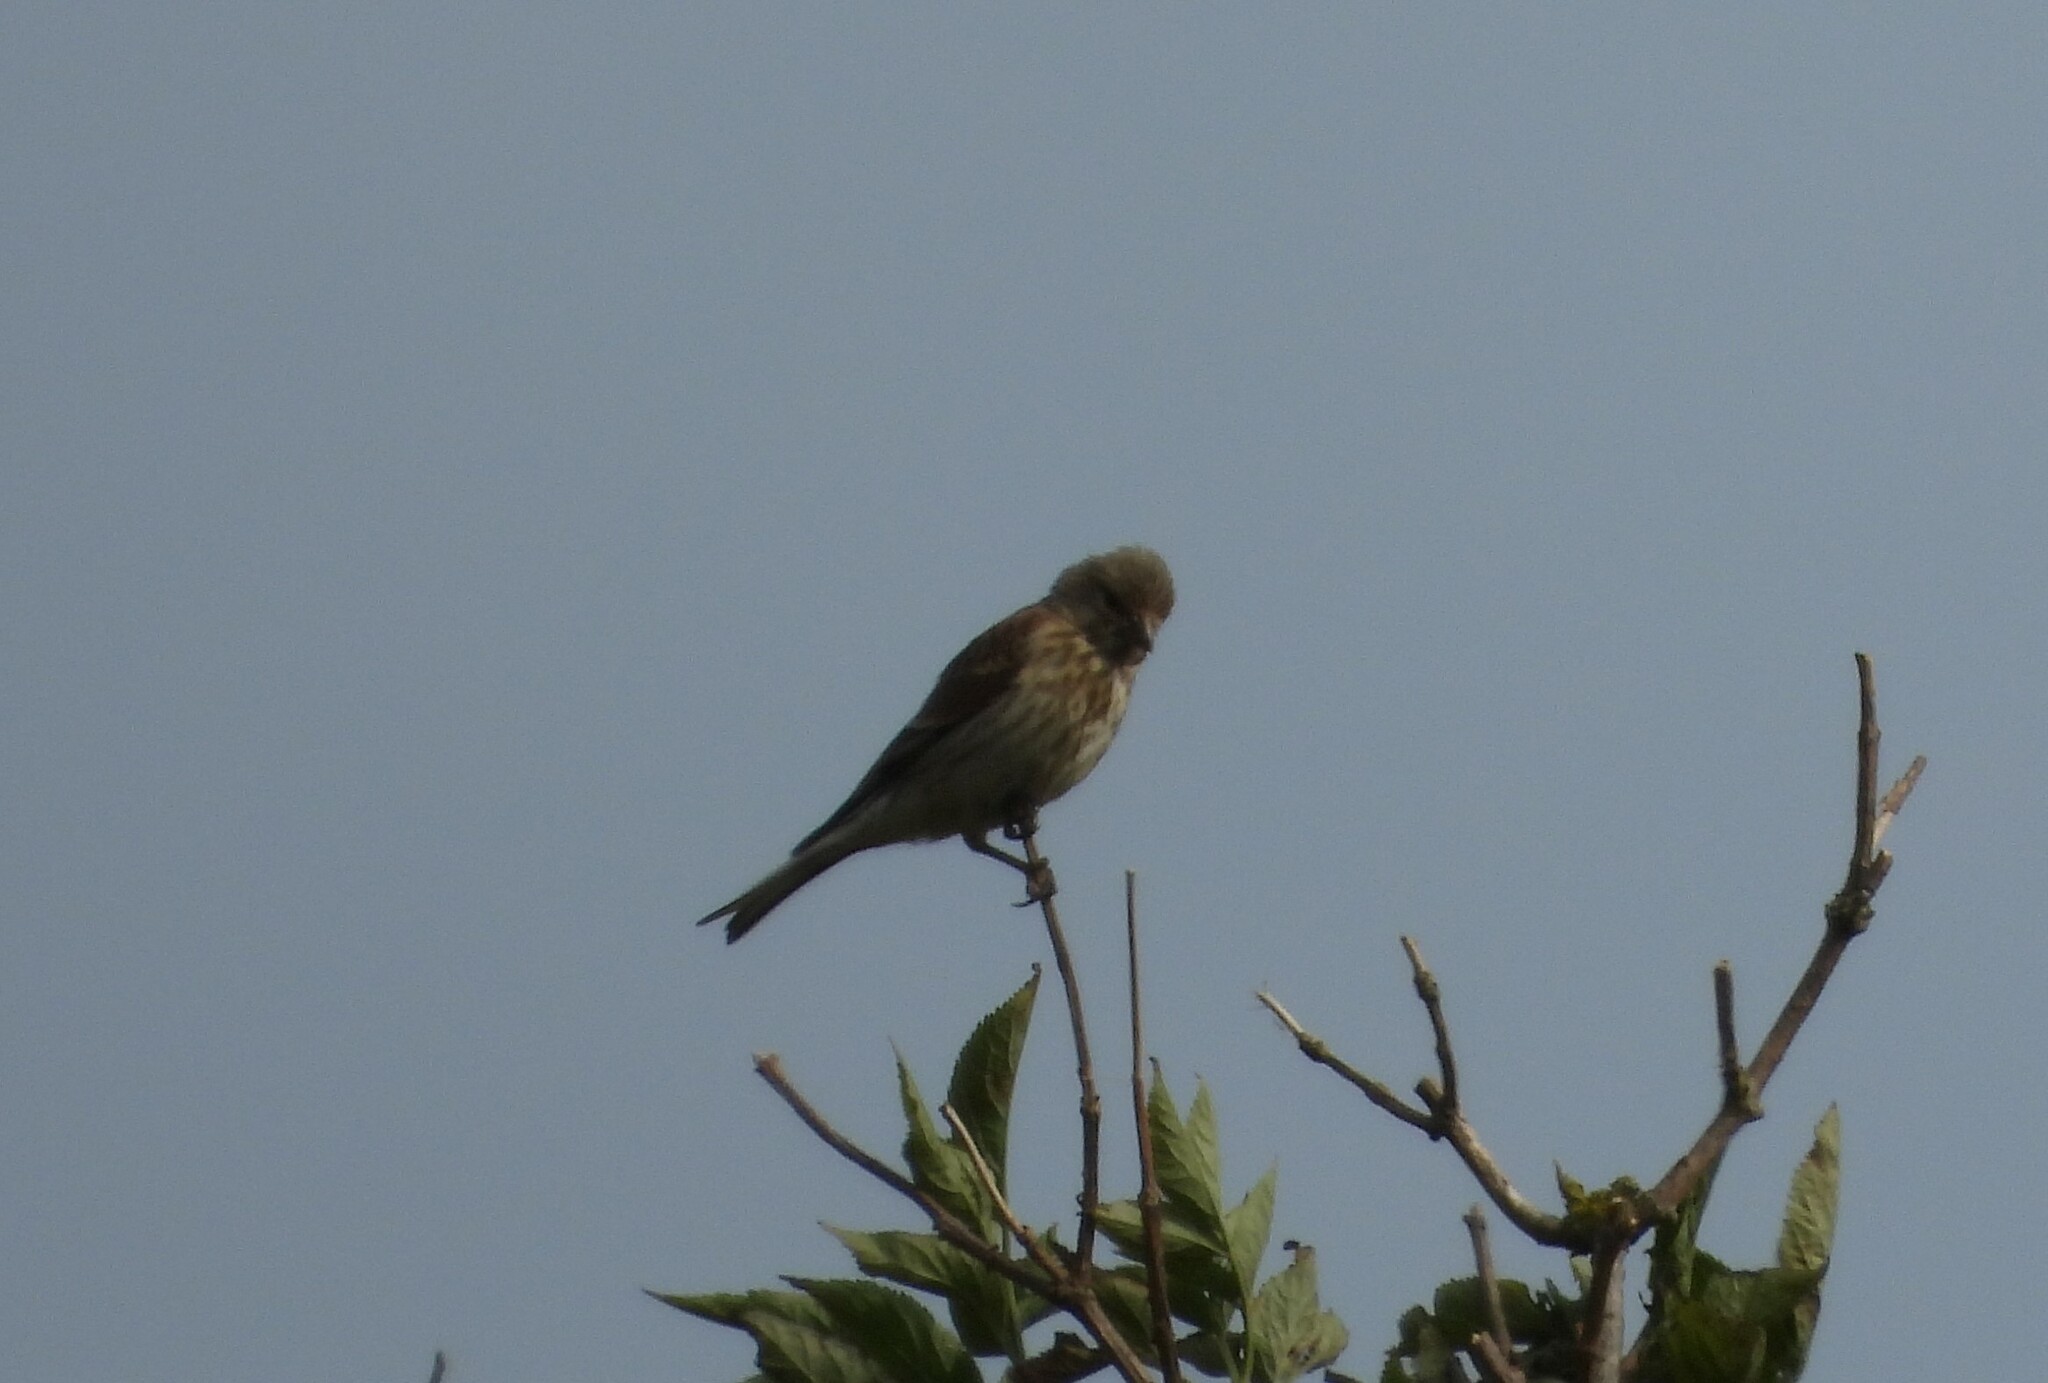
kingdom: Animalia
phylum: Chordata
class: Aves
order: Passeriformes
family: Fringillidae
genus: Linaria
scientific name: Linaria cannabina
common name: Common linnet
